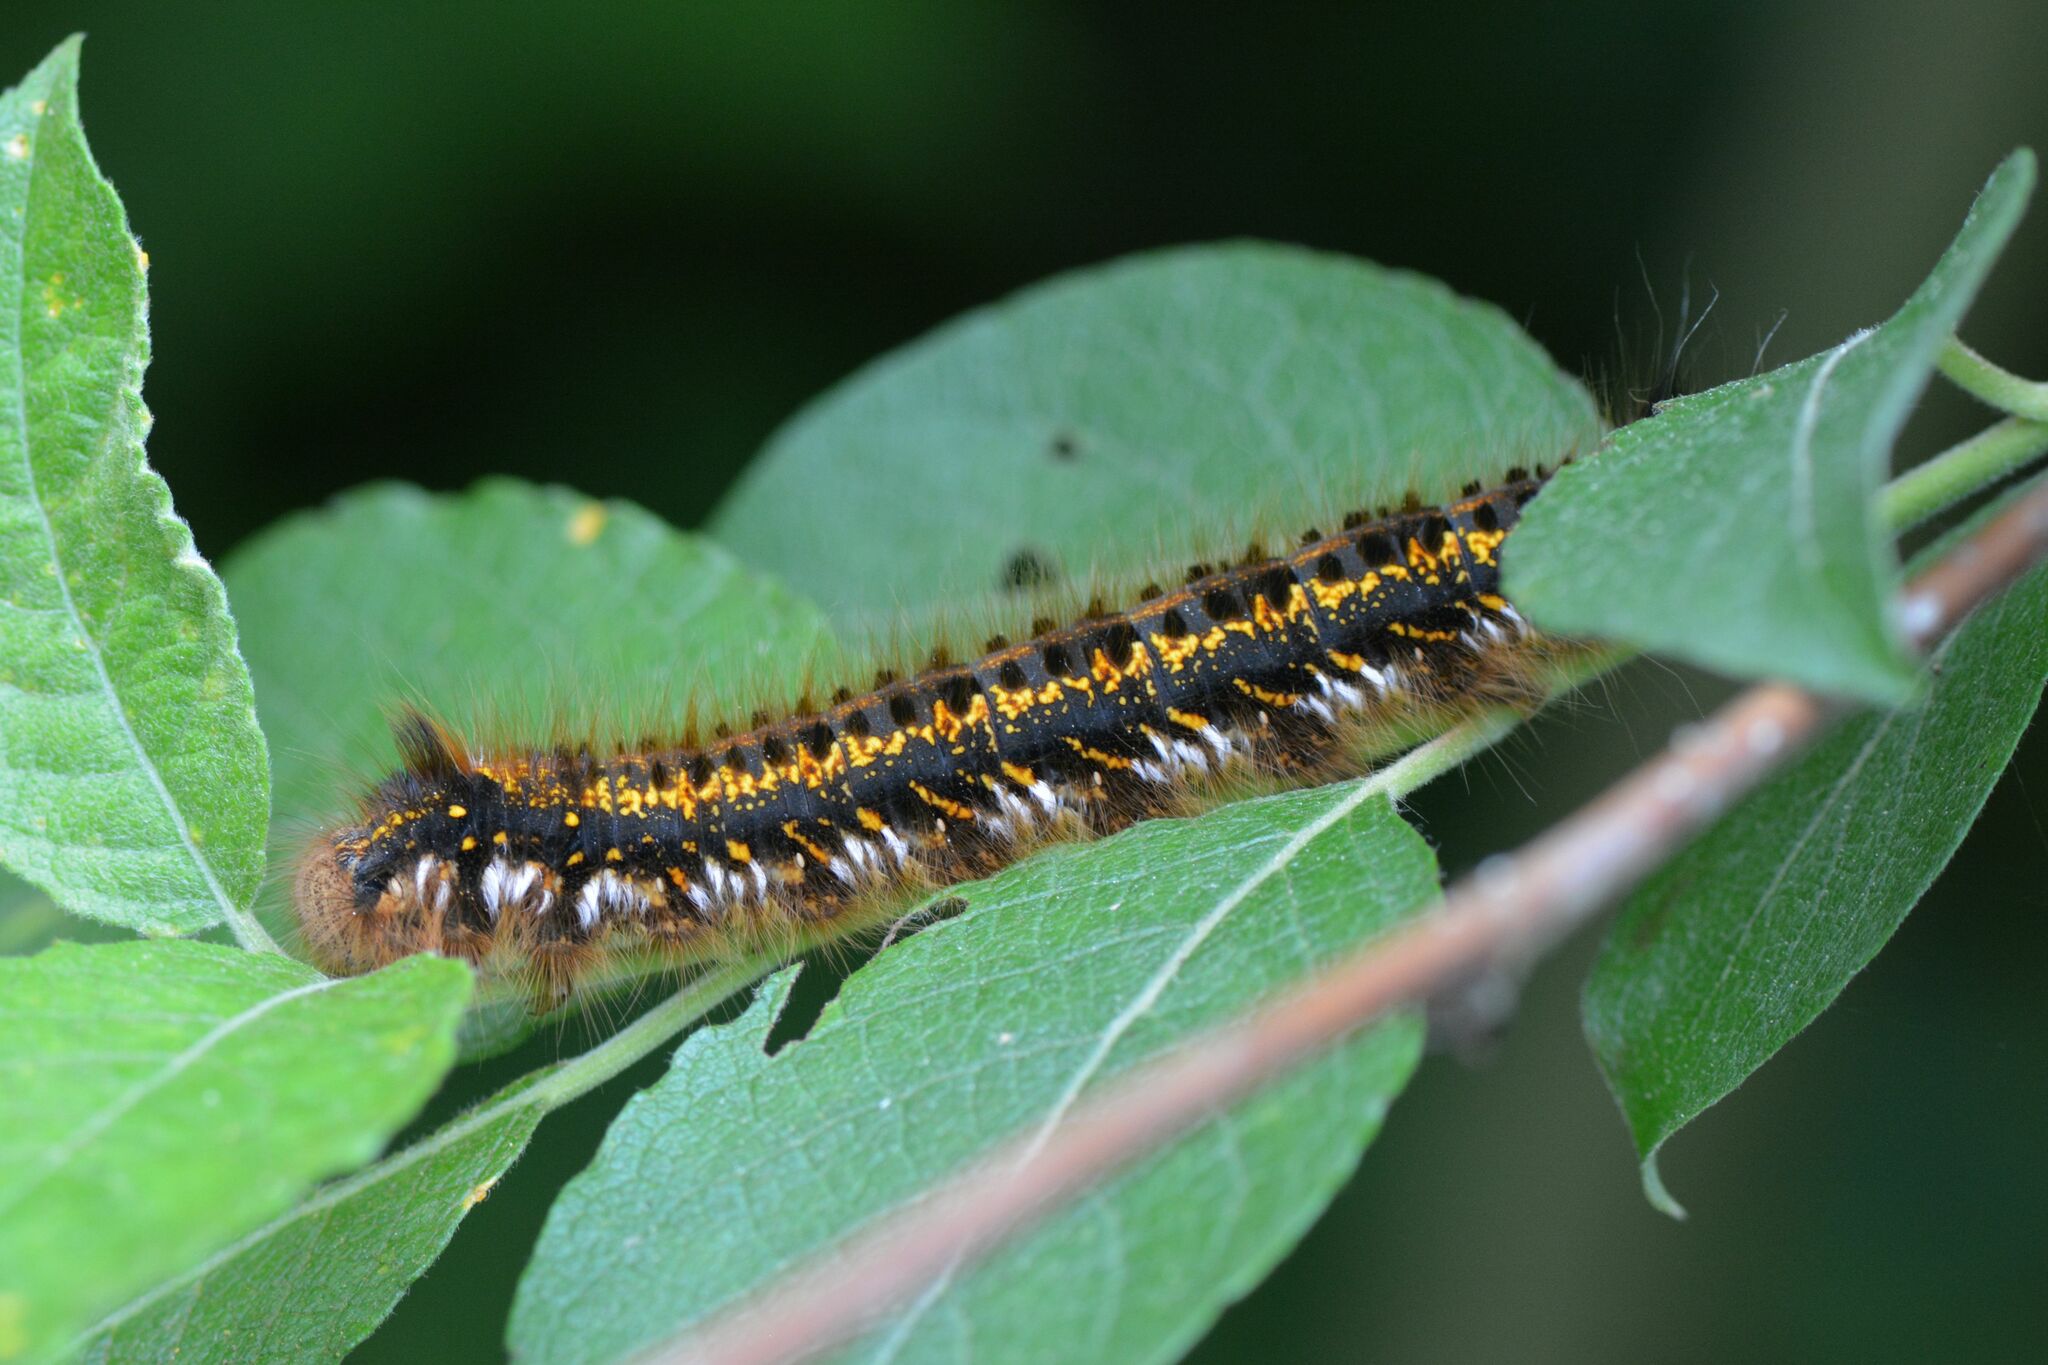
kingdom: Animalia
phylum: Arthropoda
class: Insecta
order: Lepidoptera
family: Lasiocampidae
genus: Euthrix
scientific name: Euthrix potatoria
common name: Drinker
